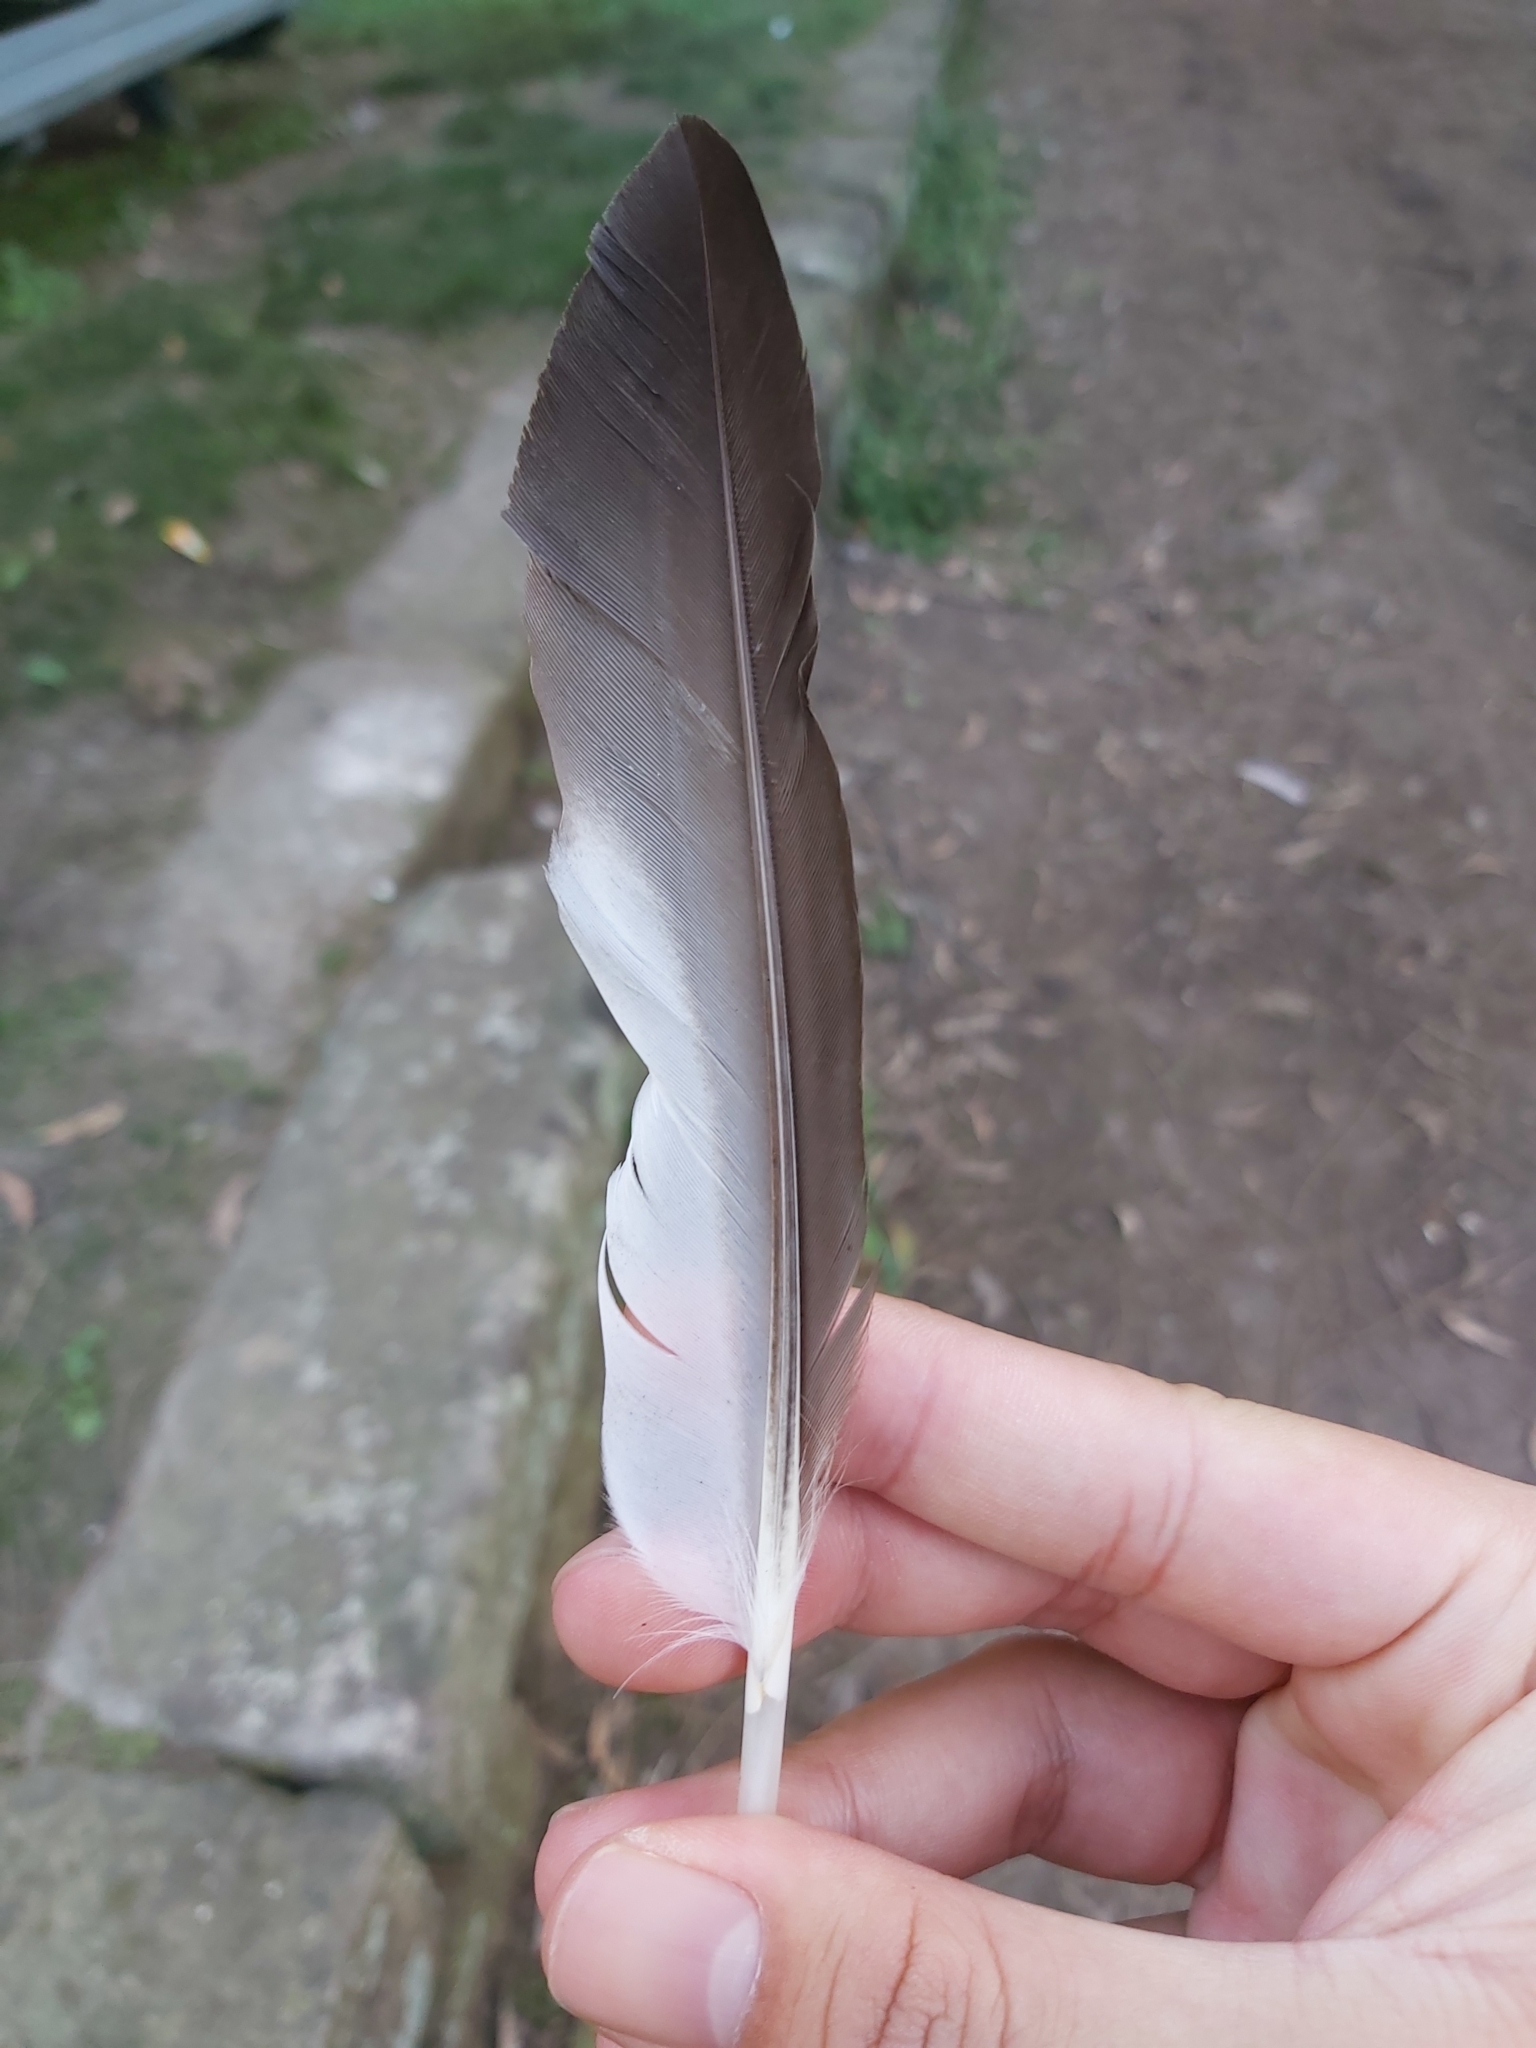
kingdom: Animalia
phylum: Chordata
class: Aves
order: Anseriformes
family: Anatidae
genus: Chenonetta
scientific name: Chenonetta jubata
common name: Maned duck
